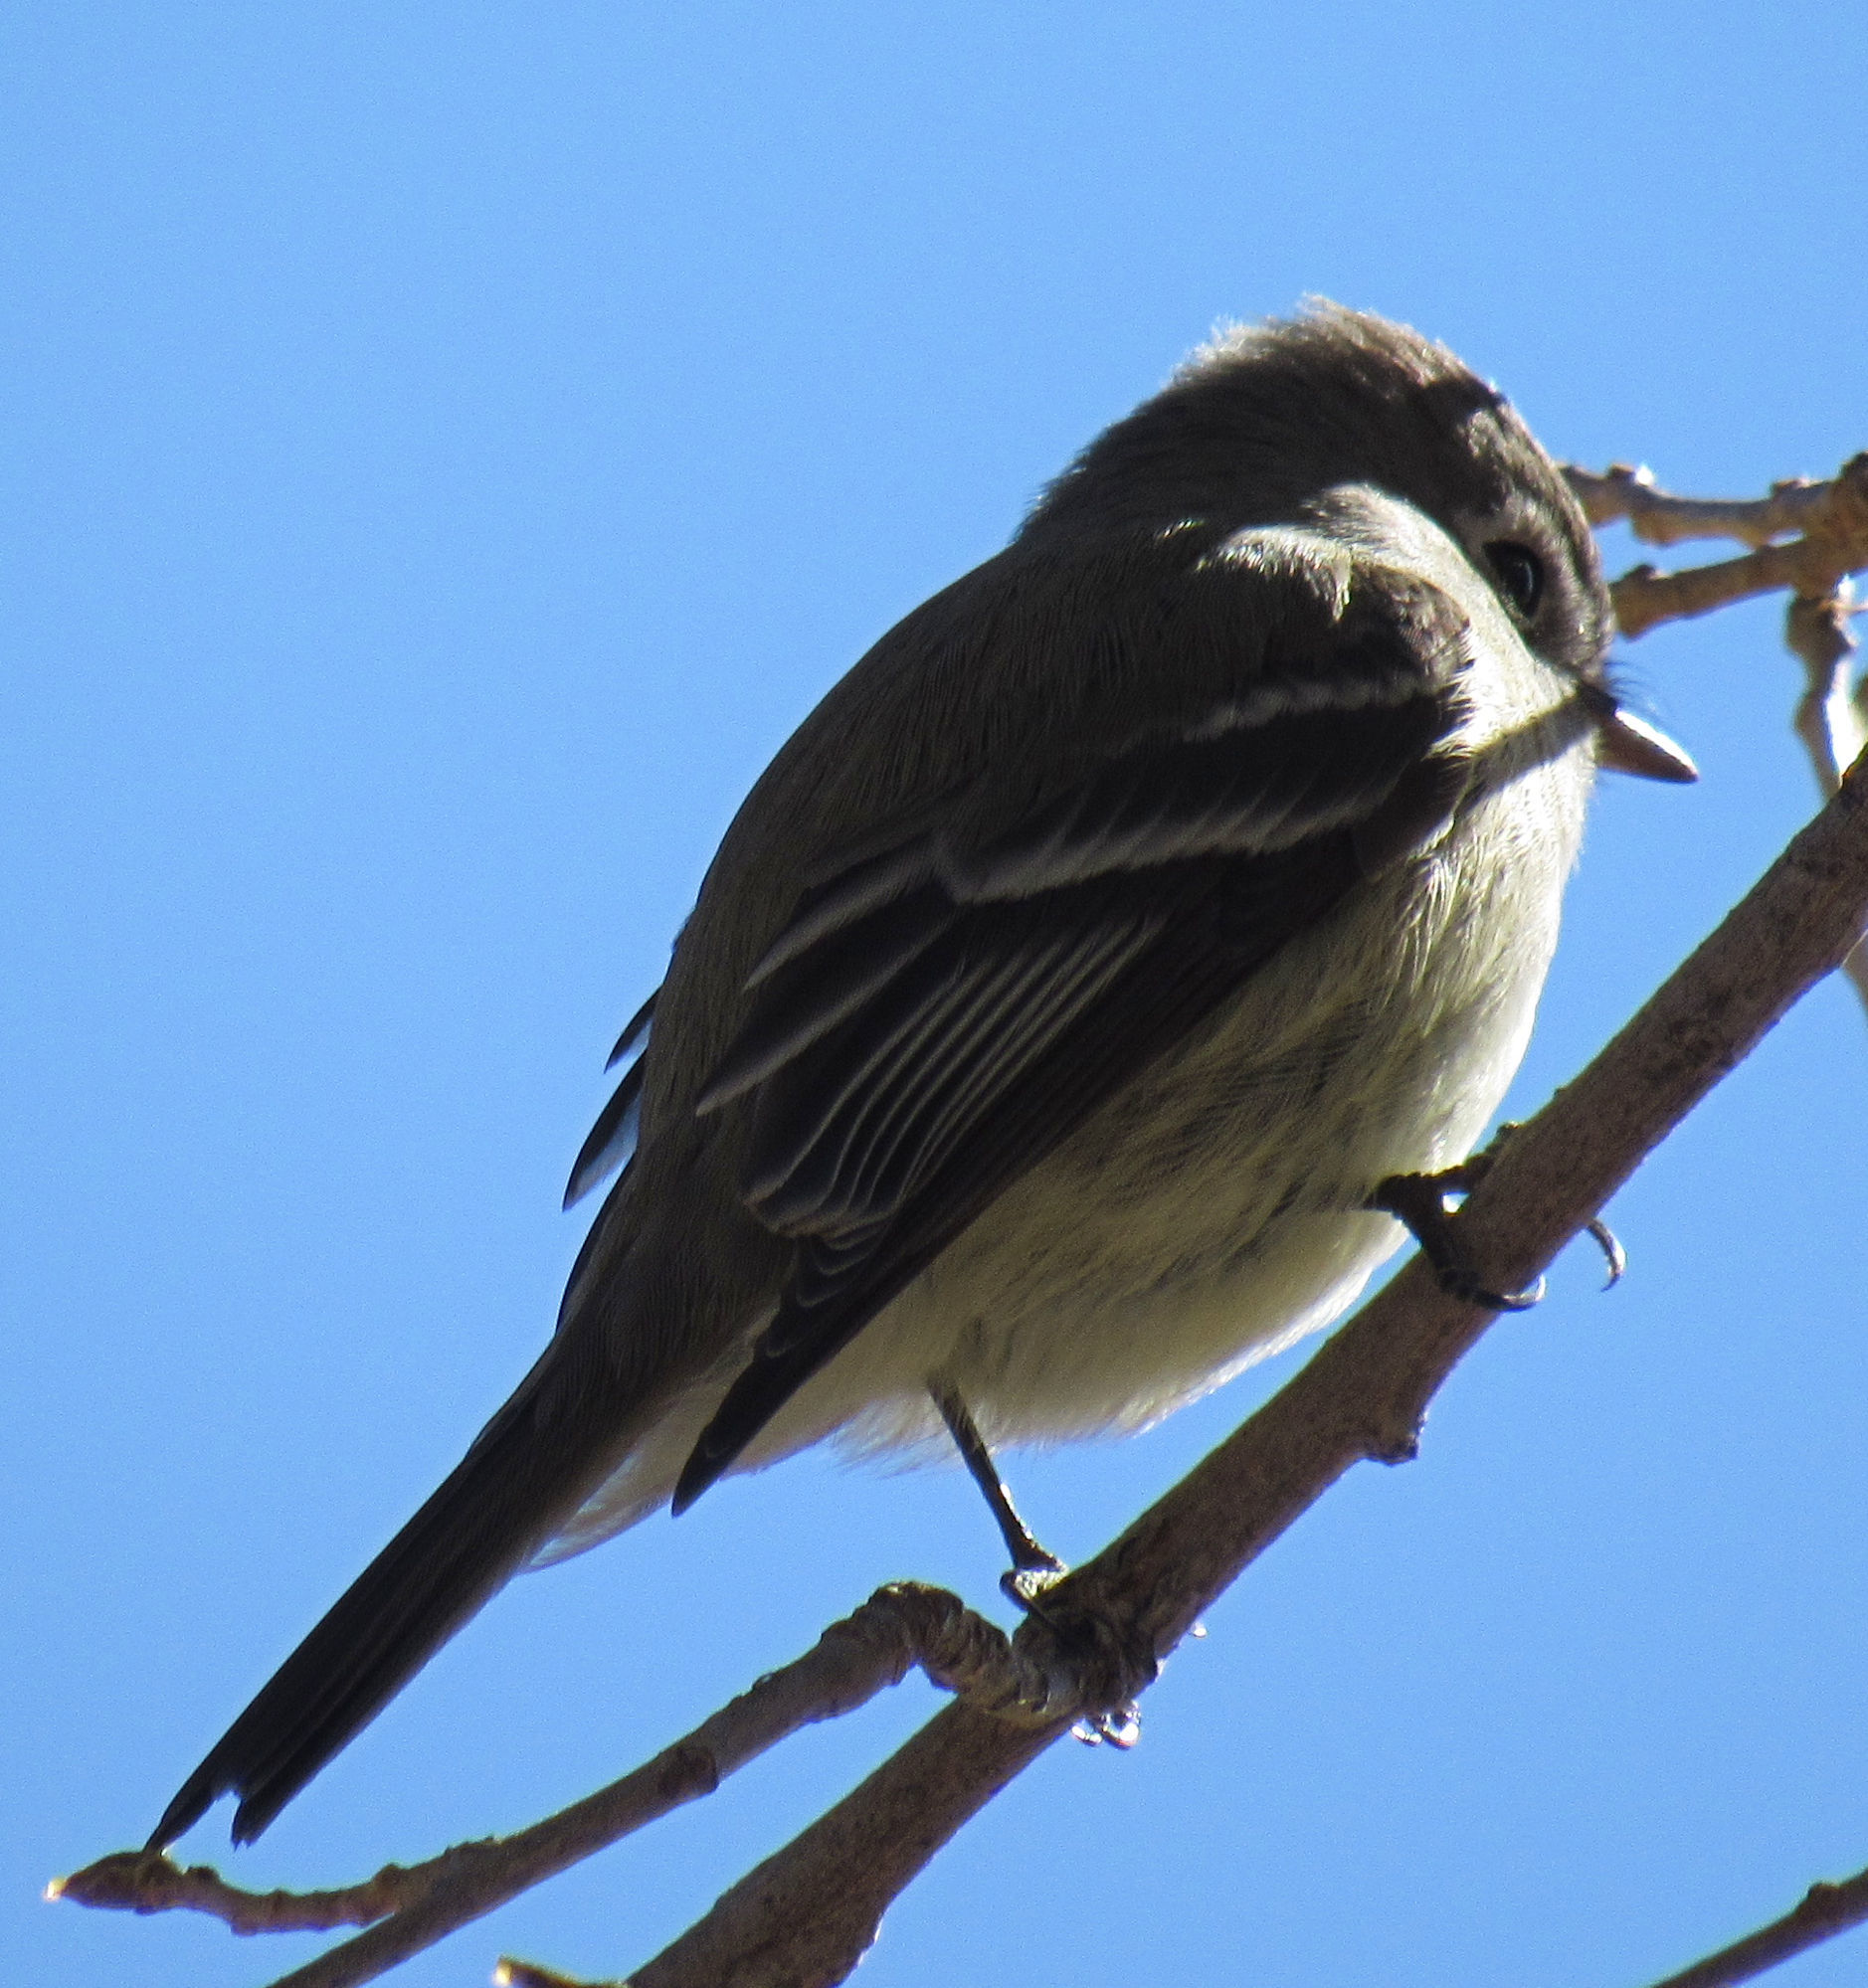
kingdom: Animalia
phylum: Chordata
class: Aves
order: Passeriformes
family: Tyrannidae
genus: Empidonax
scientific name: Empidonax hammondii
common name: Hammond's flycatcher
